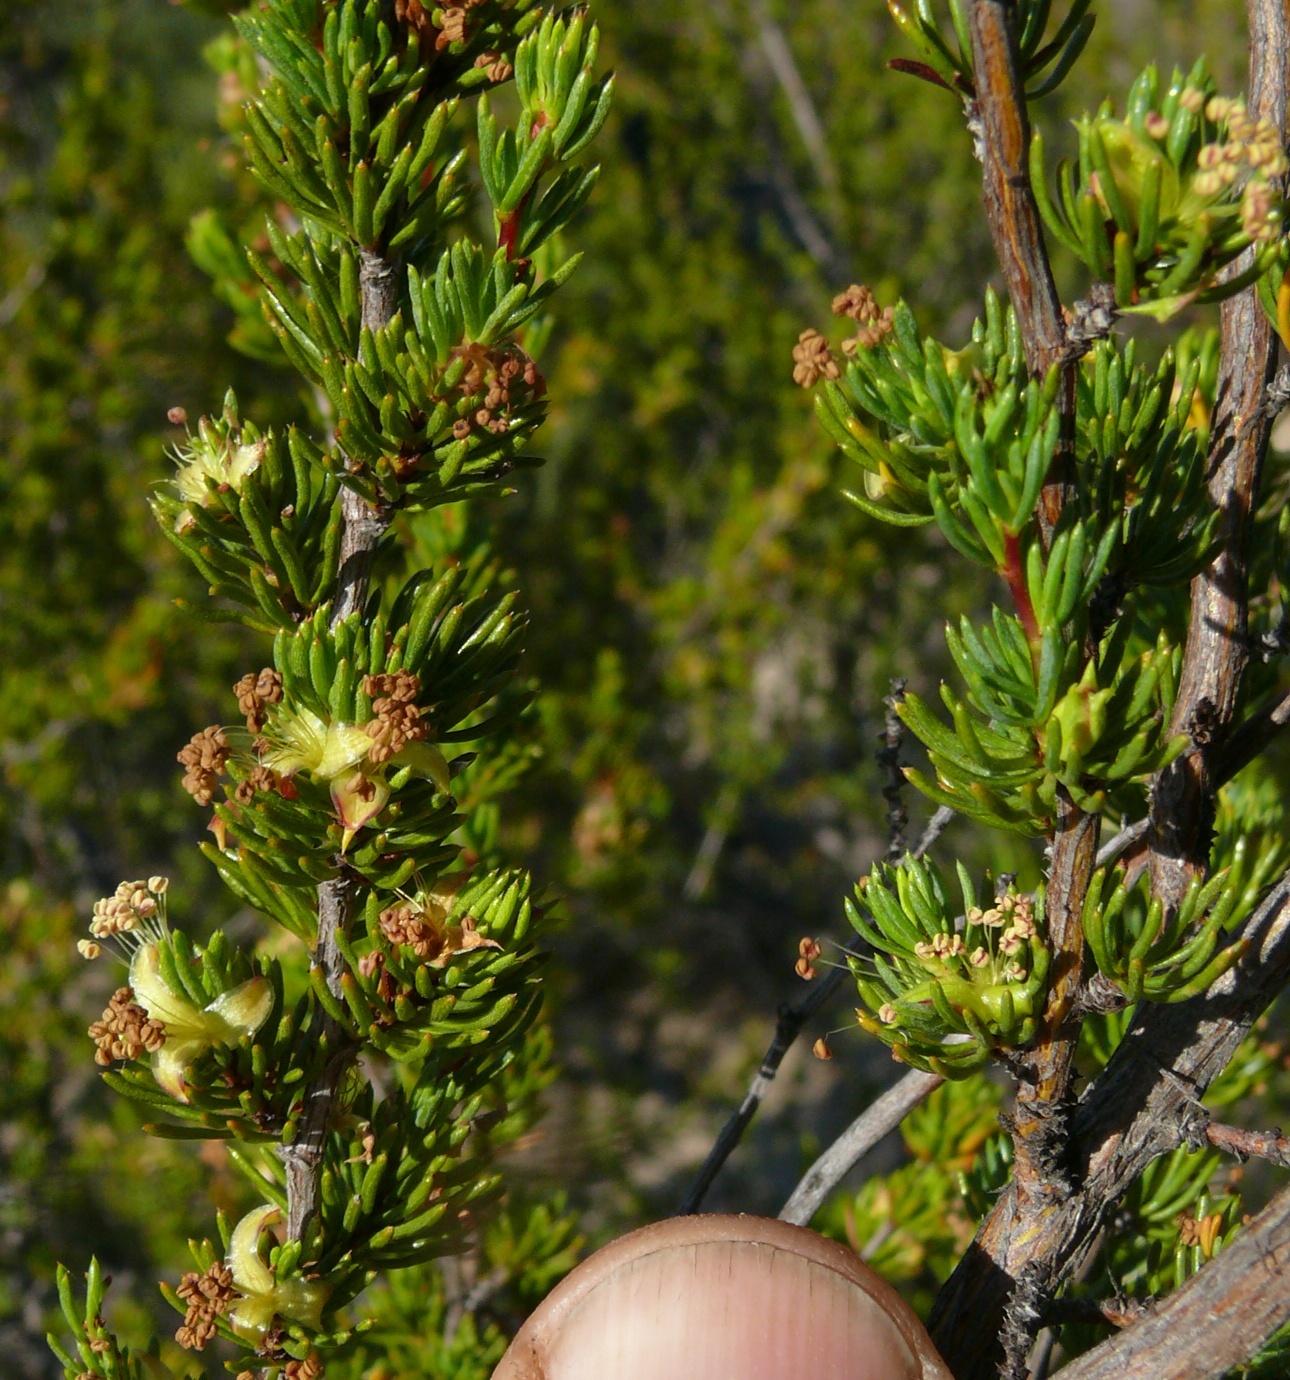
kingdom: Plantae
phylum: Tracheophyta
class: Magnoliopsida
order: Rosales
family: Rosaceae
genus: Cliffortia
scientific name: Cliffortia teretifolia
